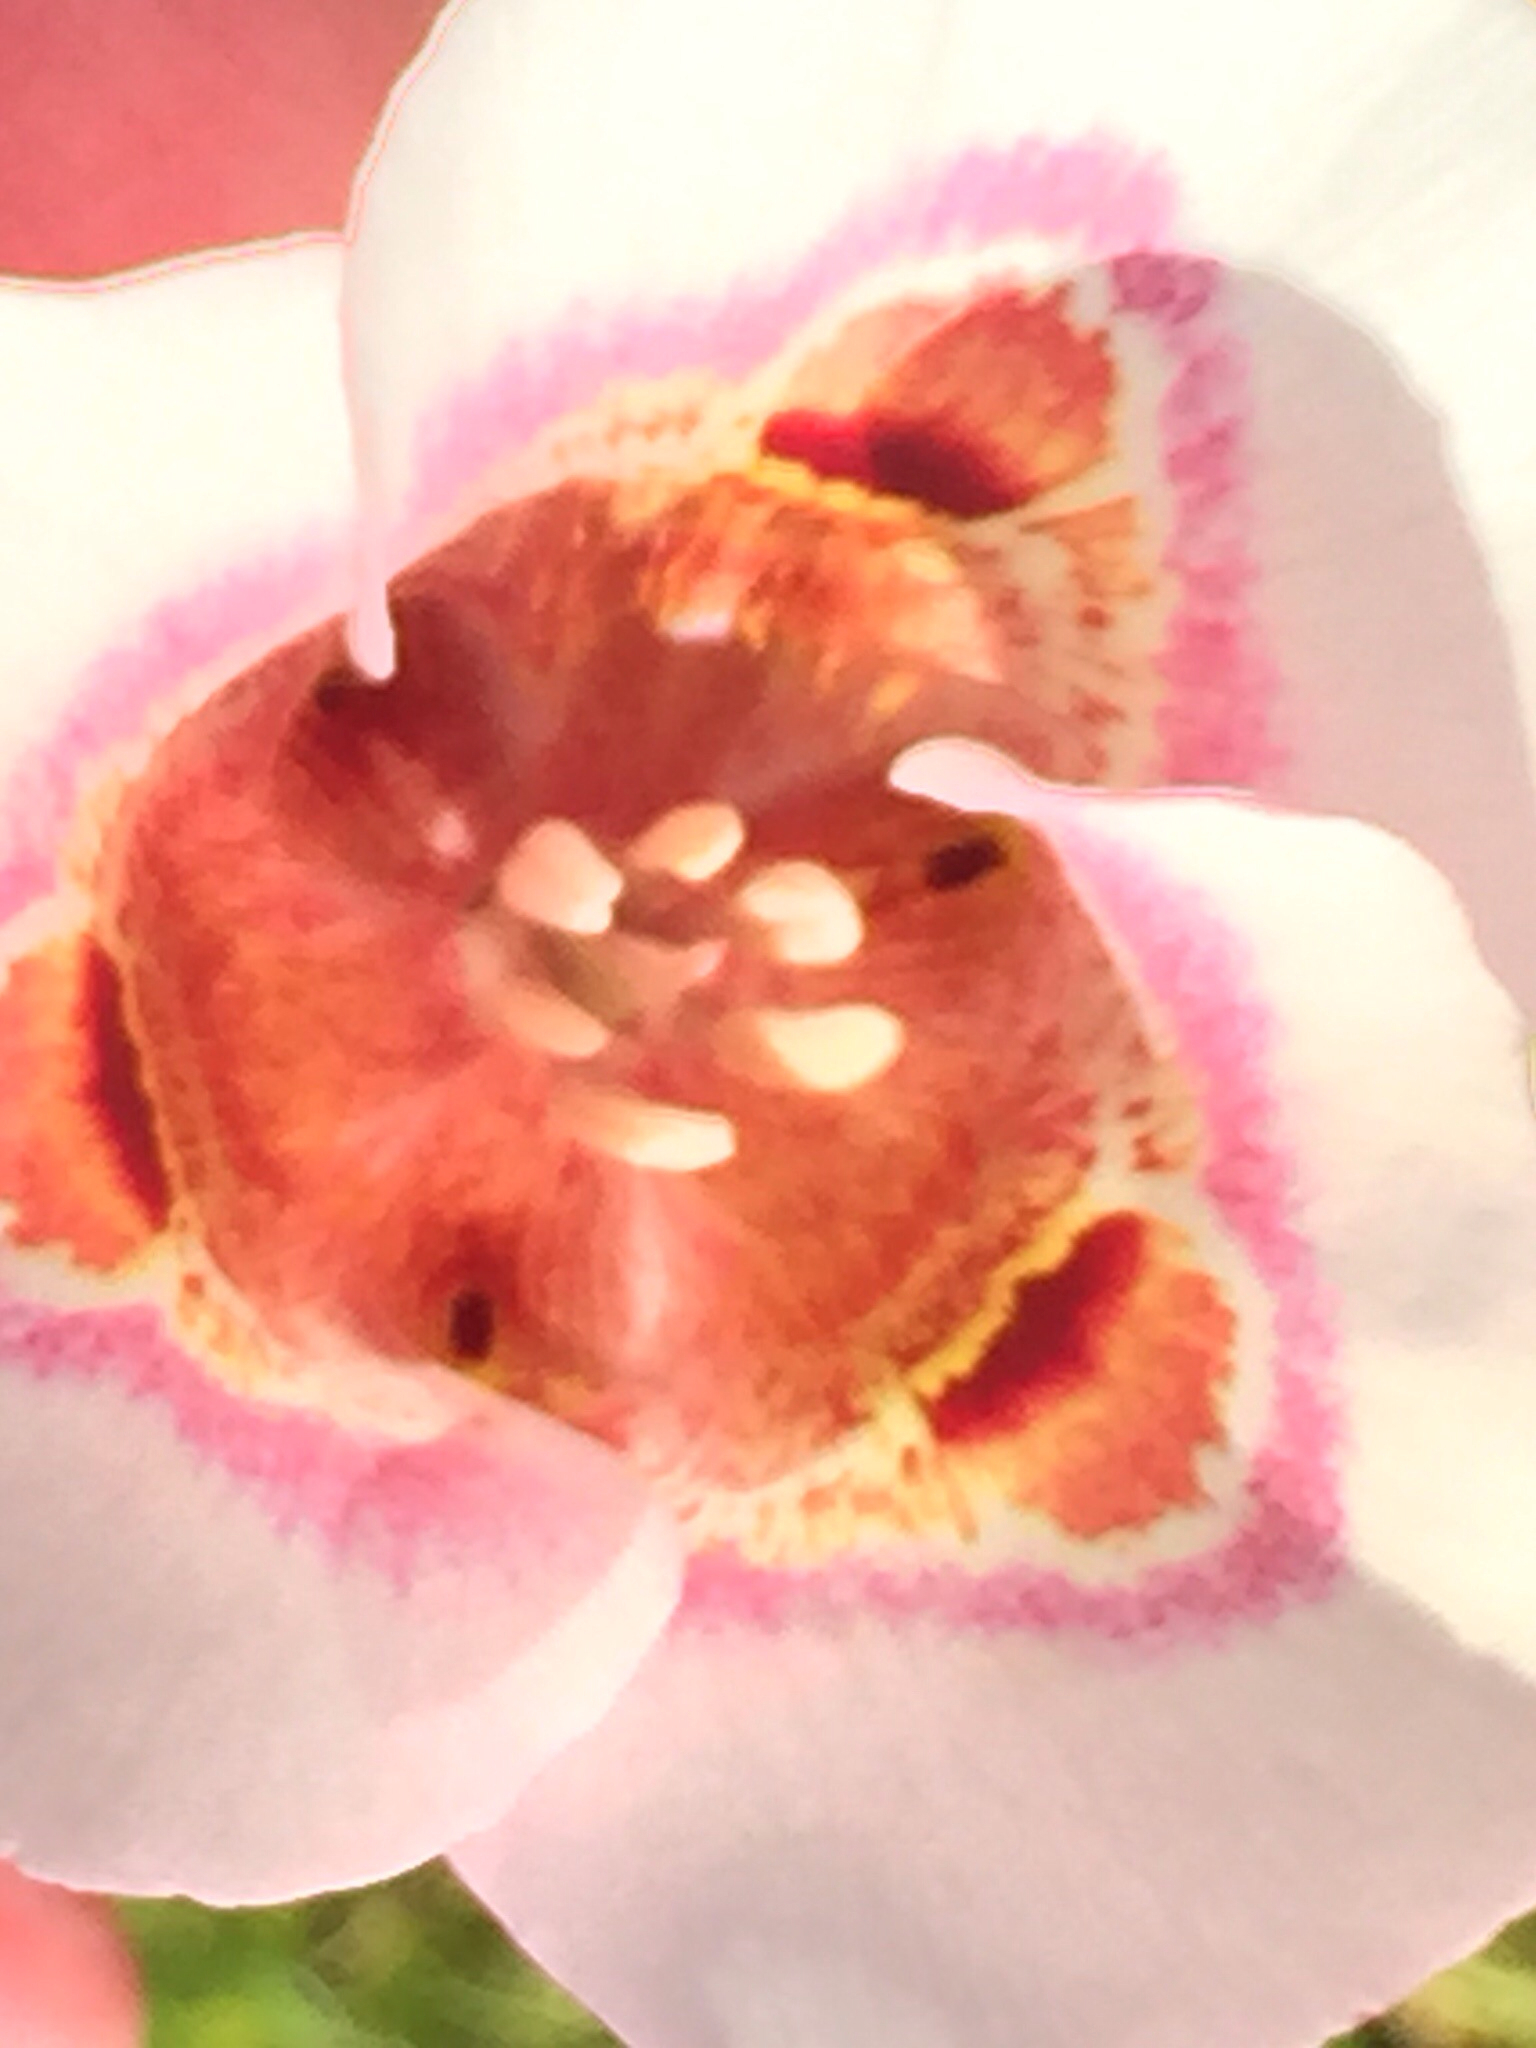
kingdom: Plantae
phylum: Tracheophyta
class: Liliopsida
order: Liliales
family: Liliaceae
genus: Calochortus
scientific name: Calochortus argillosus
